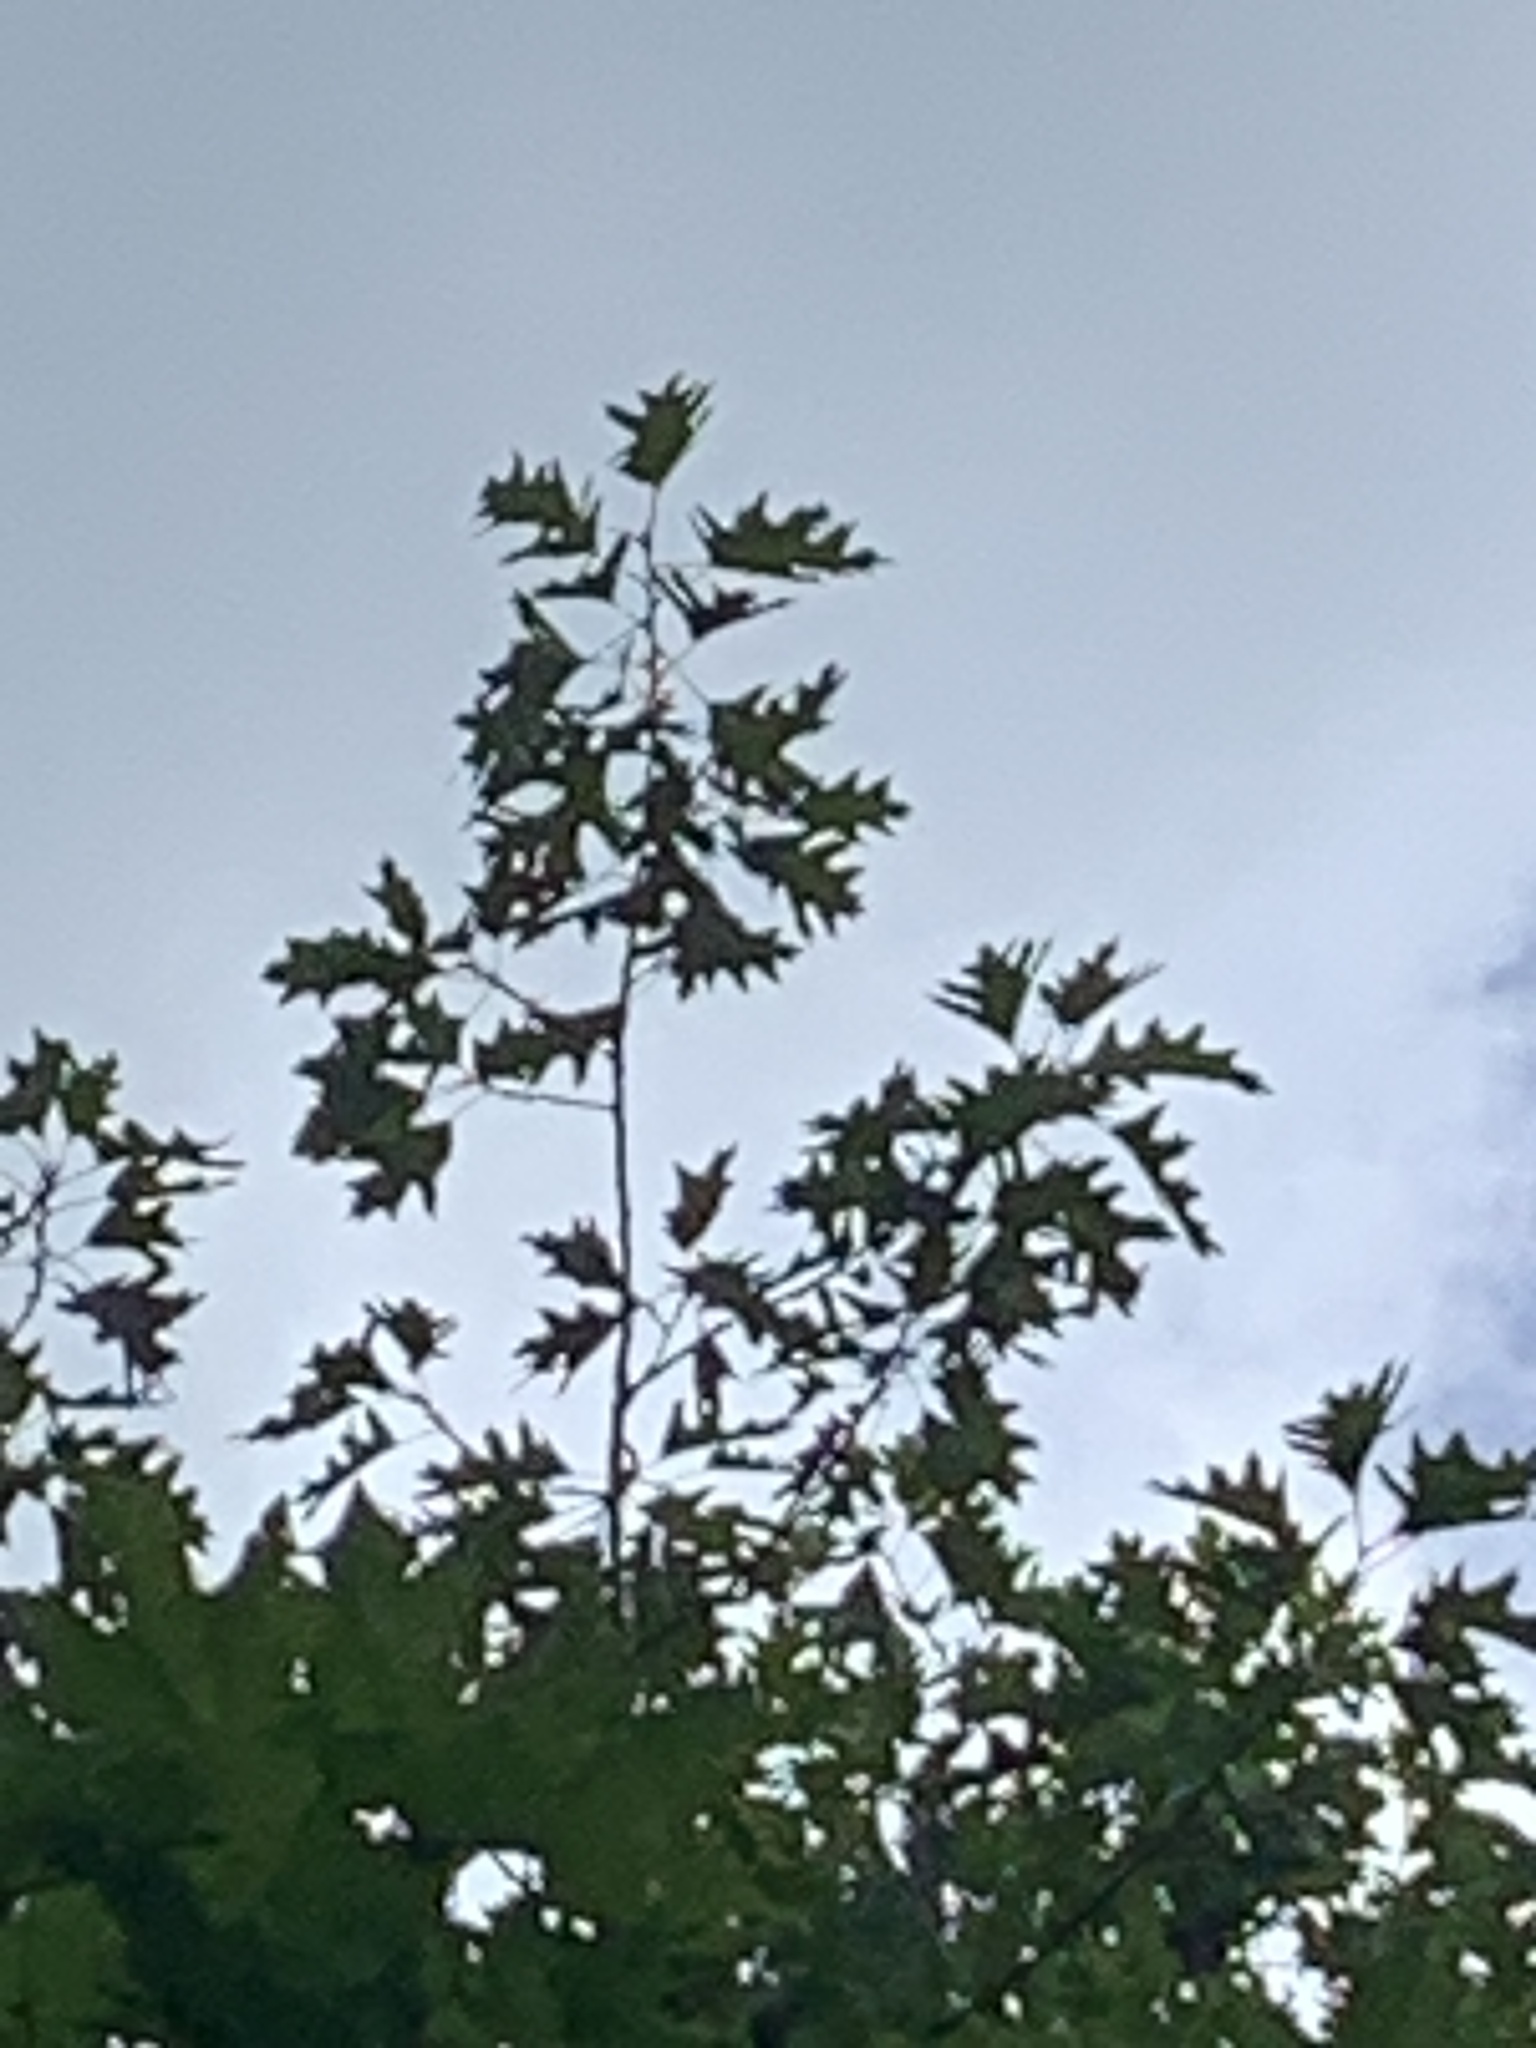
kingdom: Plantae
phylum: Tracheophyta
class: Magnoliopsida
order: Fagales
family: Fagaceae
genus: Quercus
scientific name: Quercus rubra
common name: Red oak
